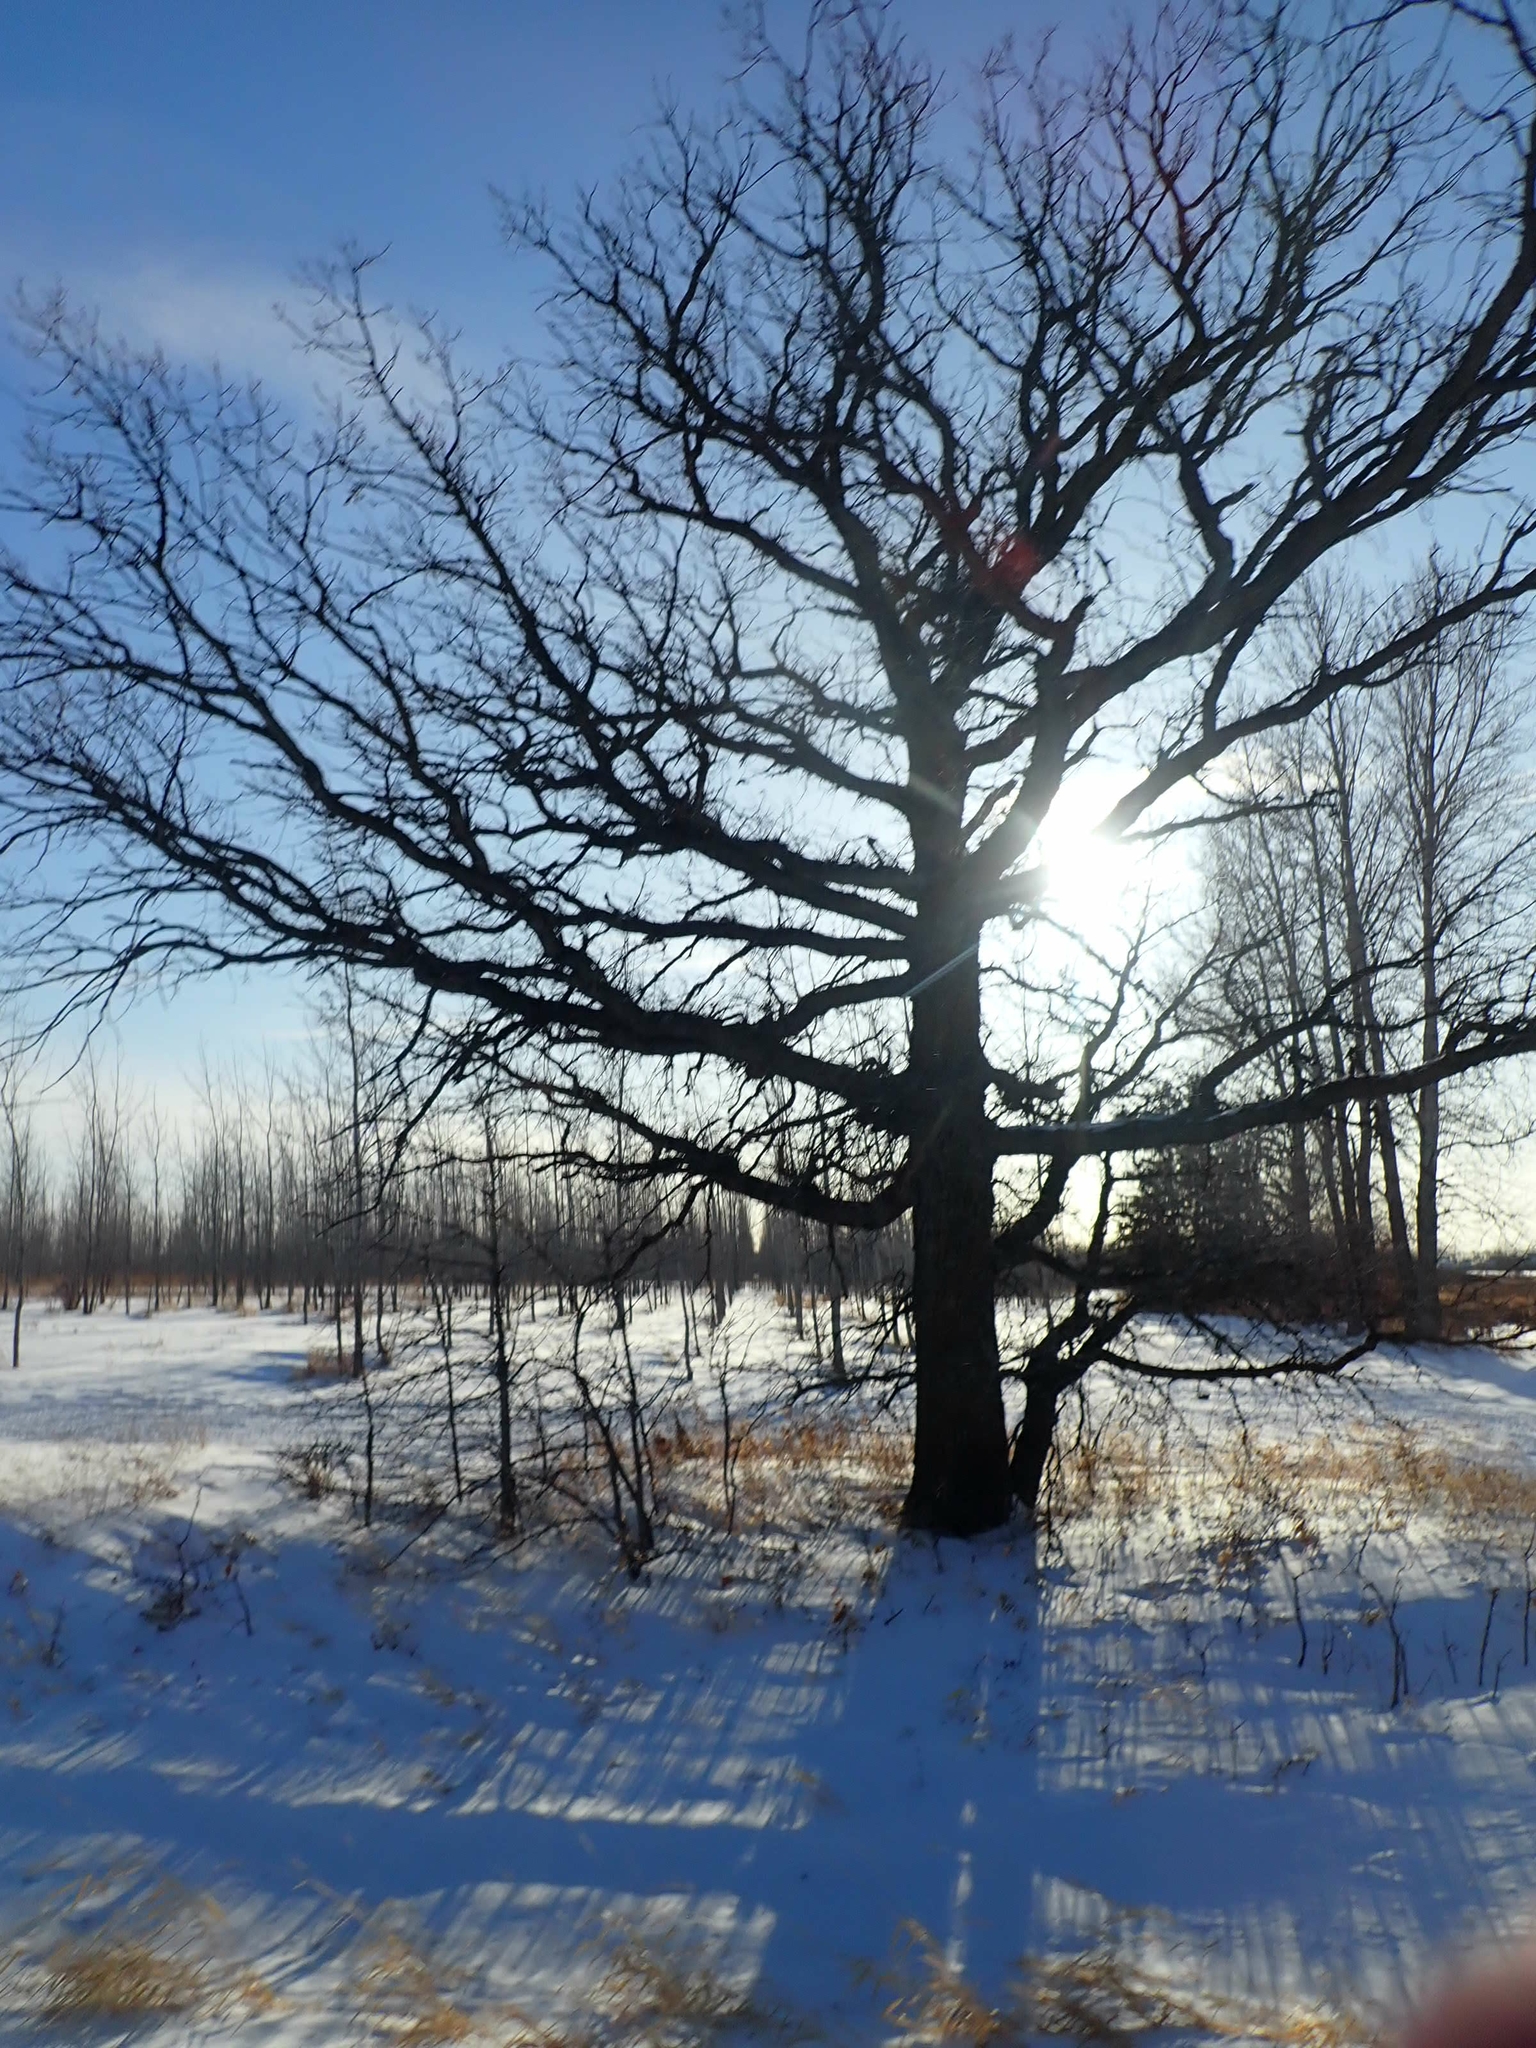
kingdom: Plantae
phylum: Tracheophyta
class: Magnoliopsida
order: Fagales
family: Fagaceae
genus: Quercus
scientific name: Quercus macrocarpa
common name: Bur oak
